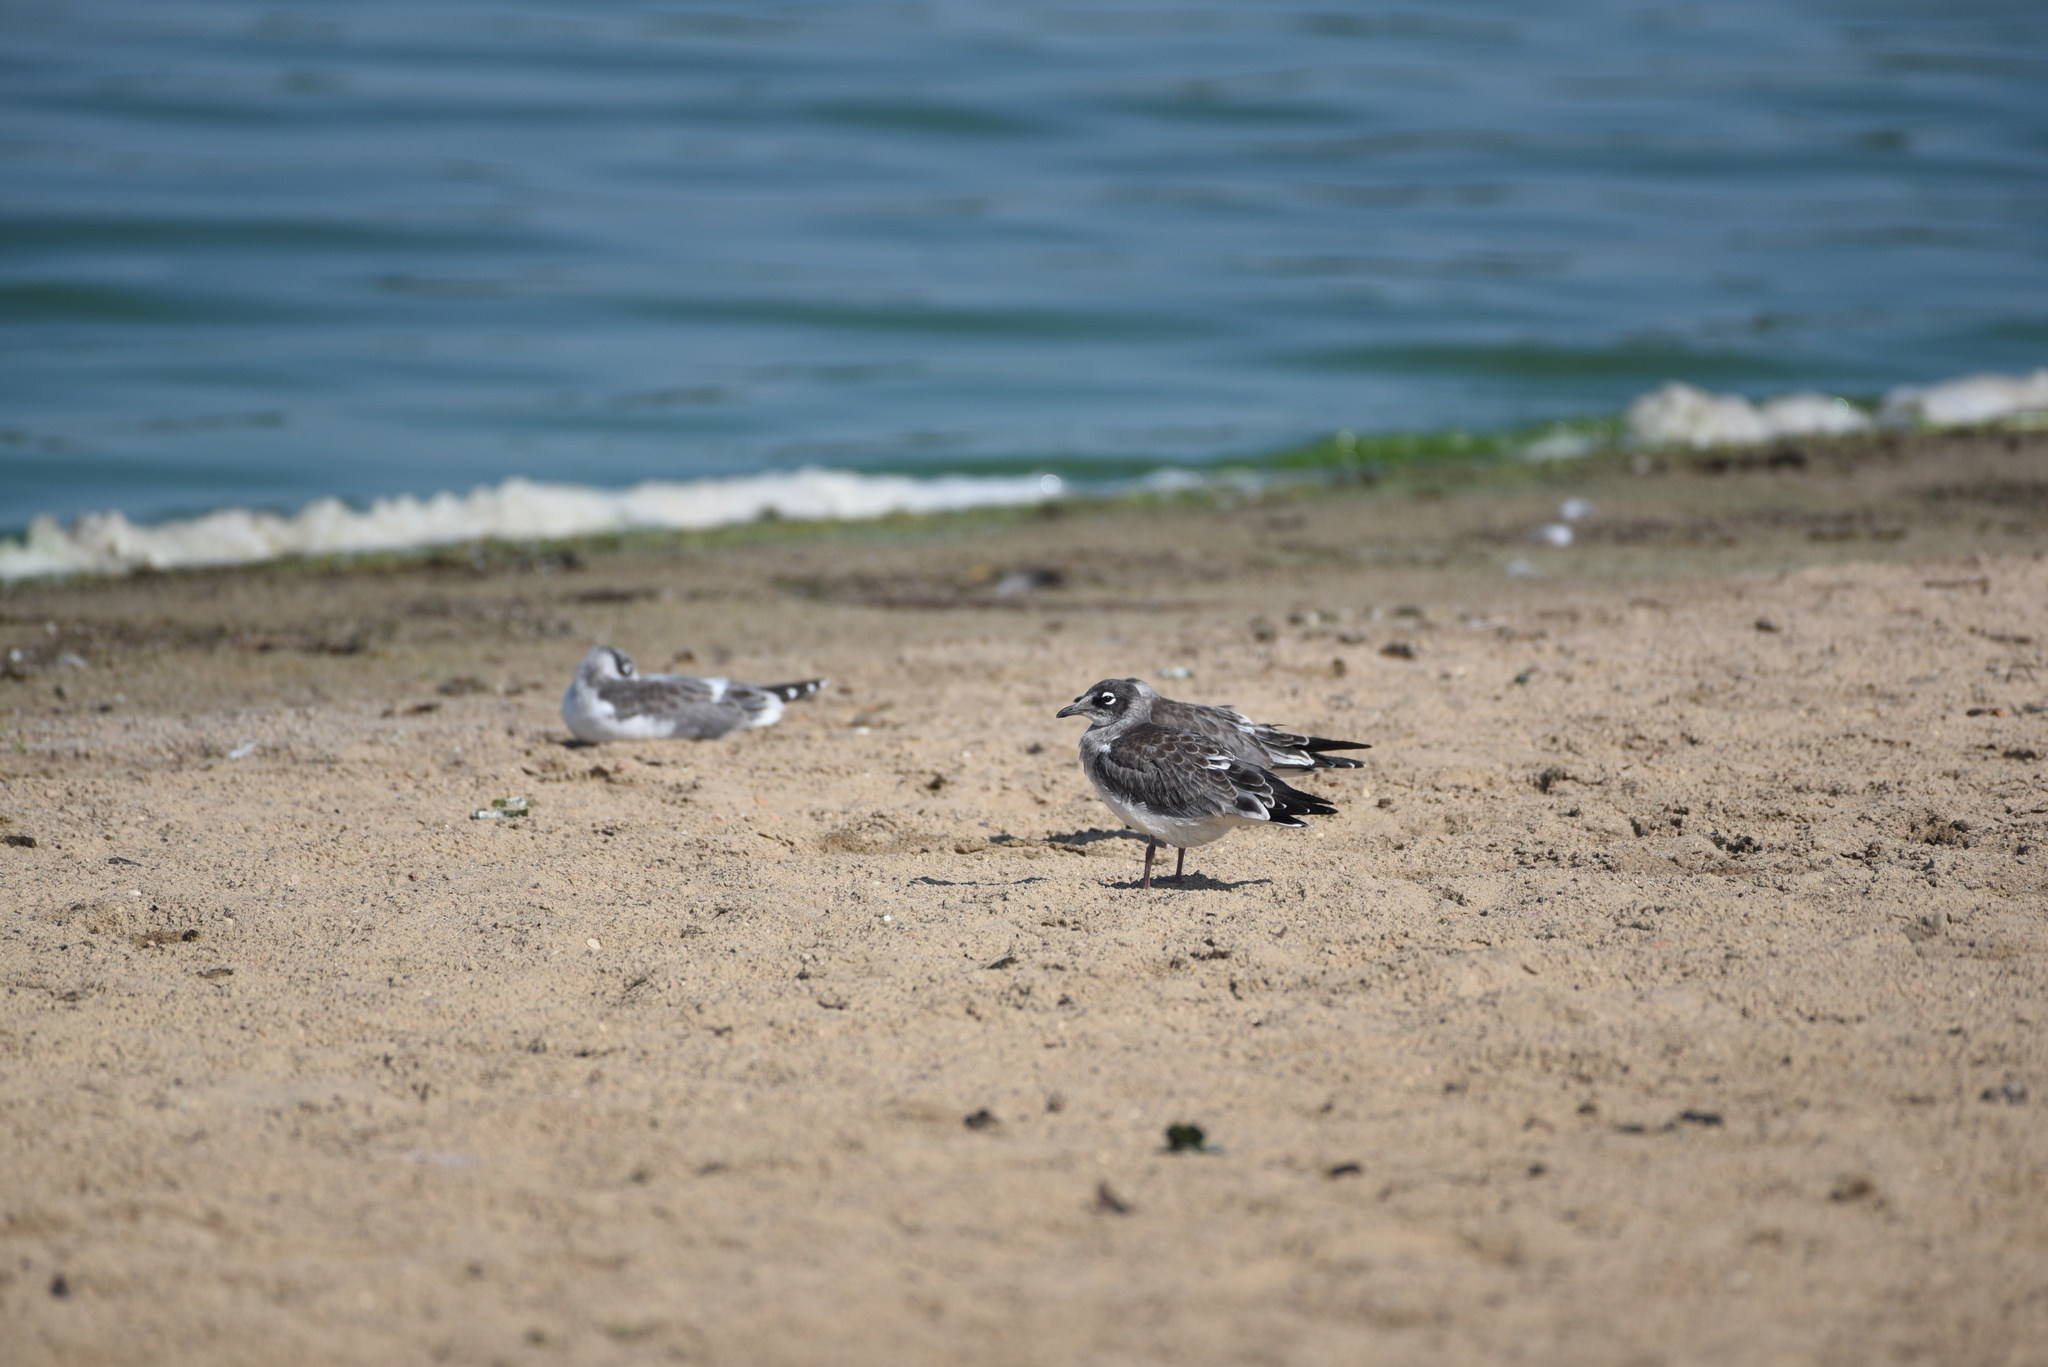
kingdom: Animalia
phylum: Chordata
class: Aves
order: Charadriiformes
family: Laridae
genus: Leucophaeus
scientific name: Leucophaeus pipixcan
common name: Franklin's gull
